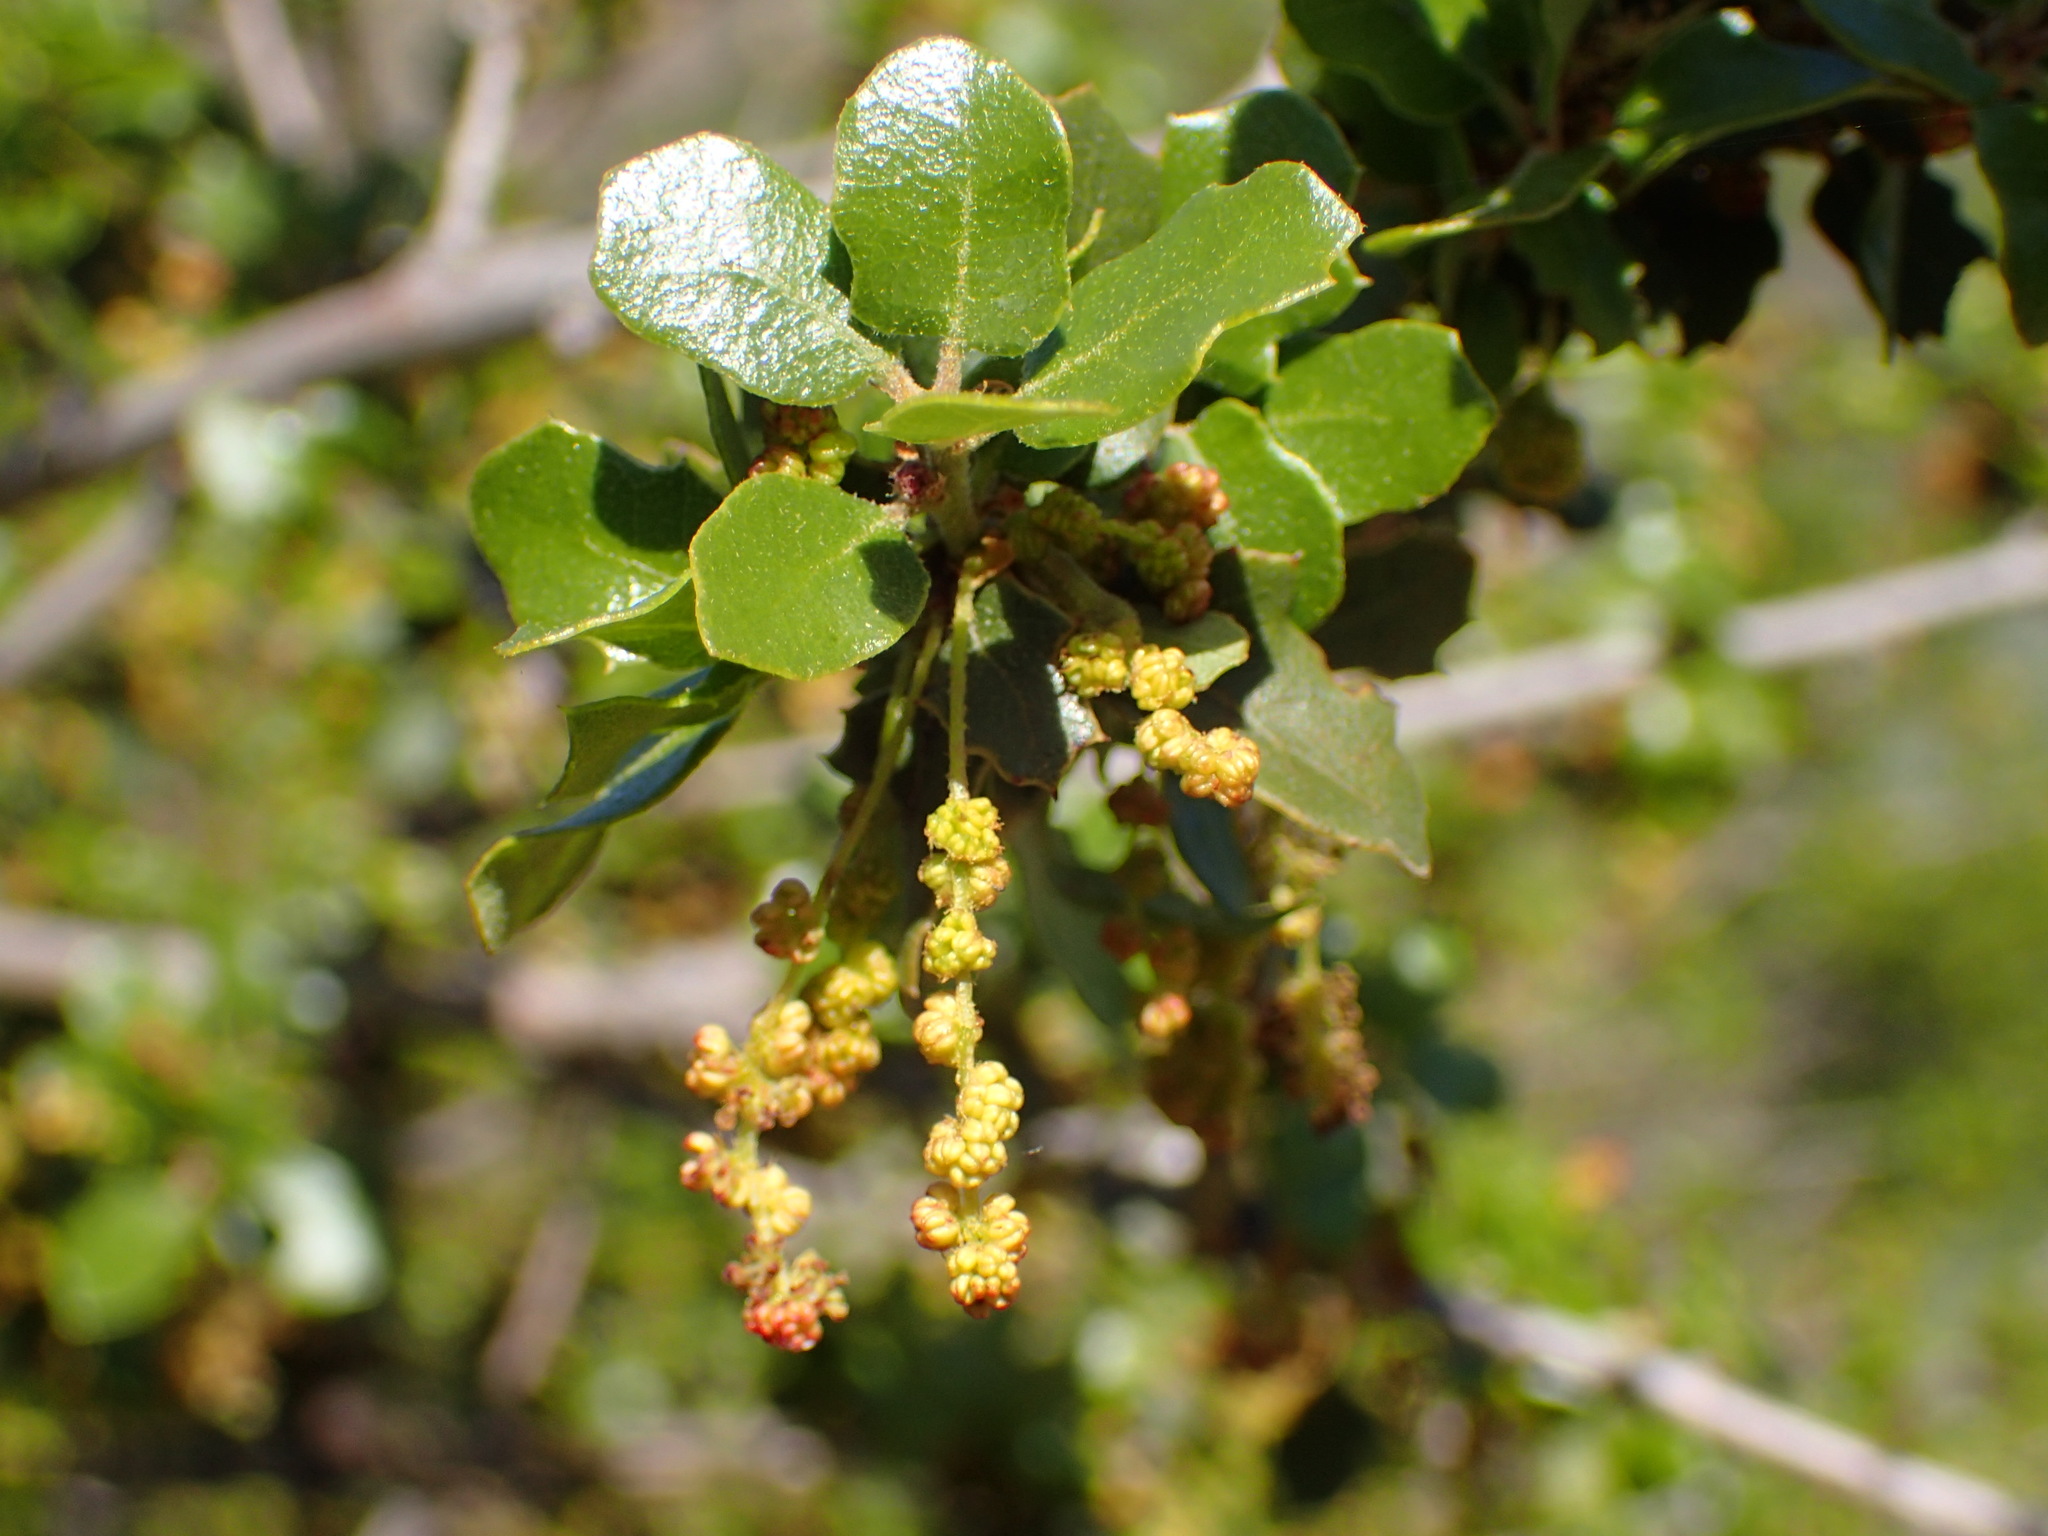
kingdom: Plantae
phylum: Tracheophyta
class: Magnoliopsida
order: Fagales
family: Fagaceae
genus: Quercus
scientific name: Quercus berberidifolia
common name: California scrub oak
